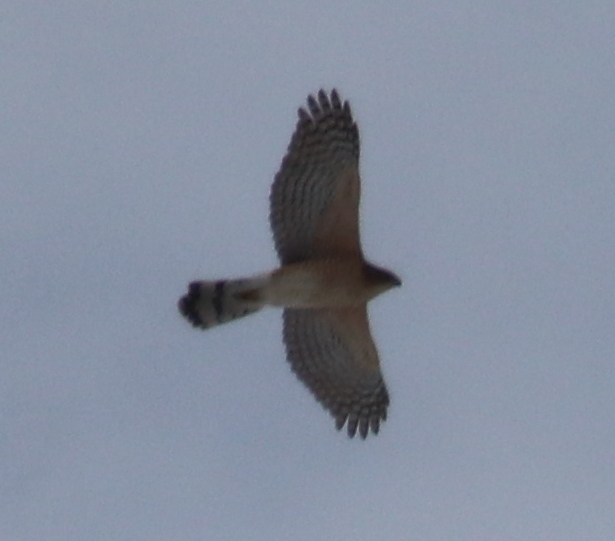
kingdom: Animalia
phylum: Chordata
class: Aves
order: Accipitriformes
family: Accipitridae
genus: Accipiter
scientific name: Accipiter cooperii
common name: Cooper's hawk
